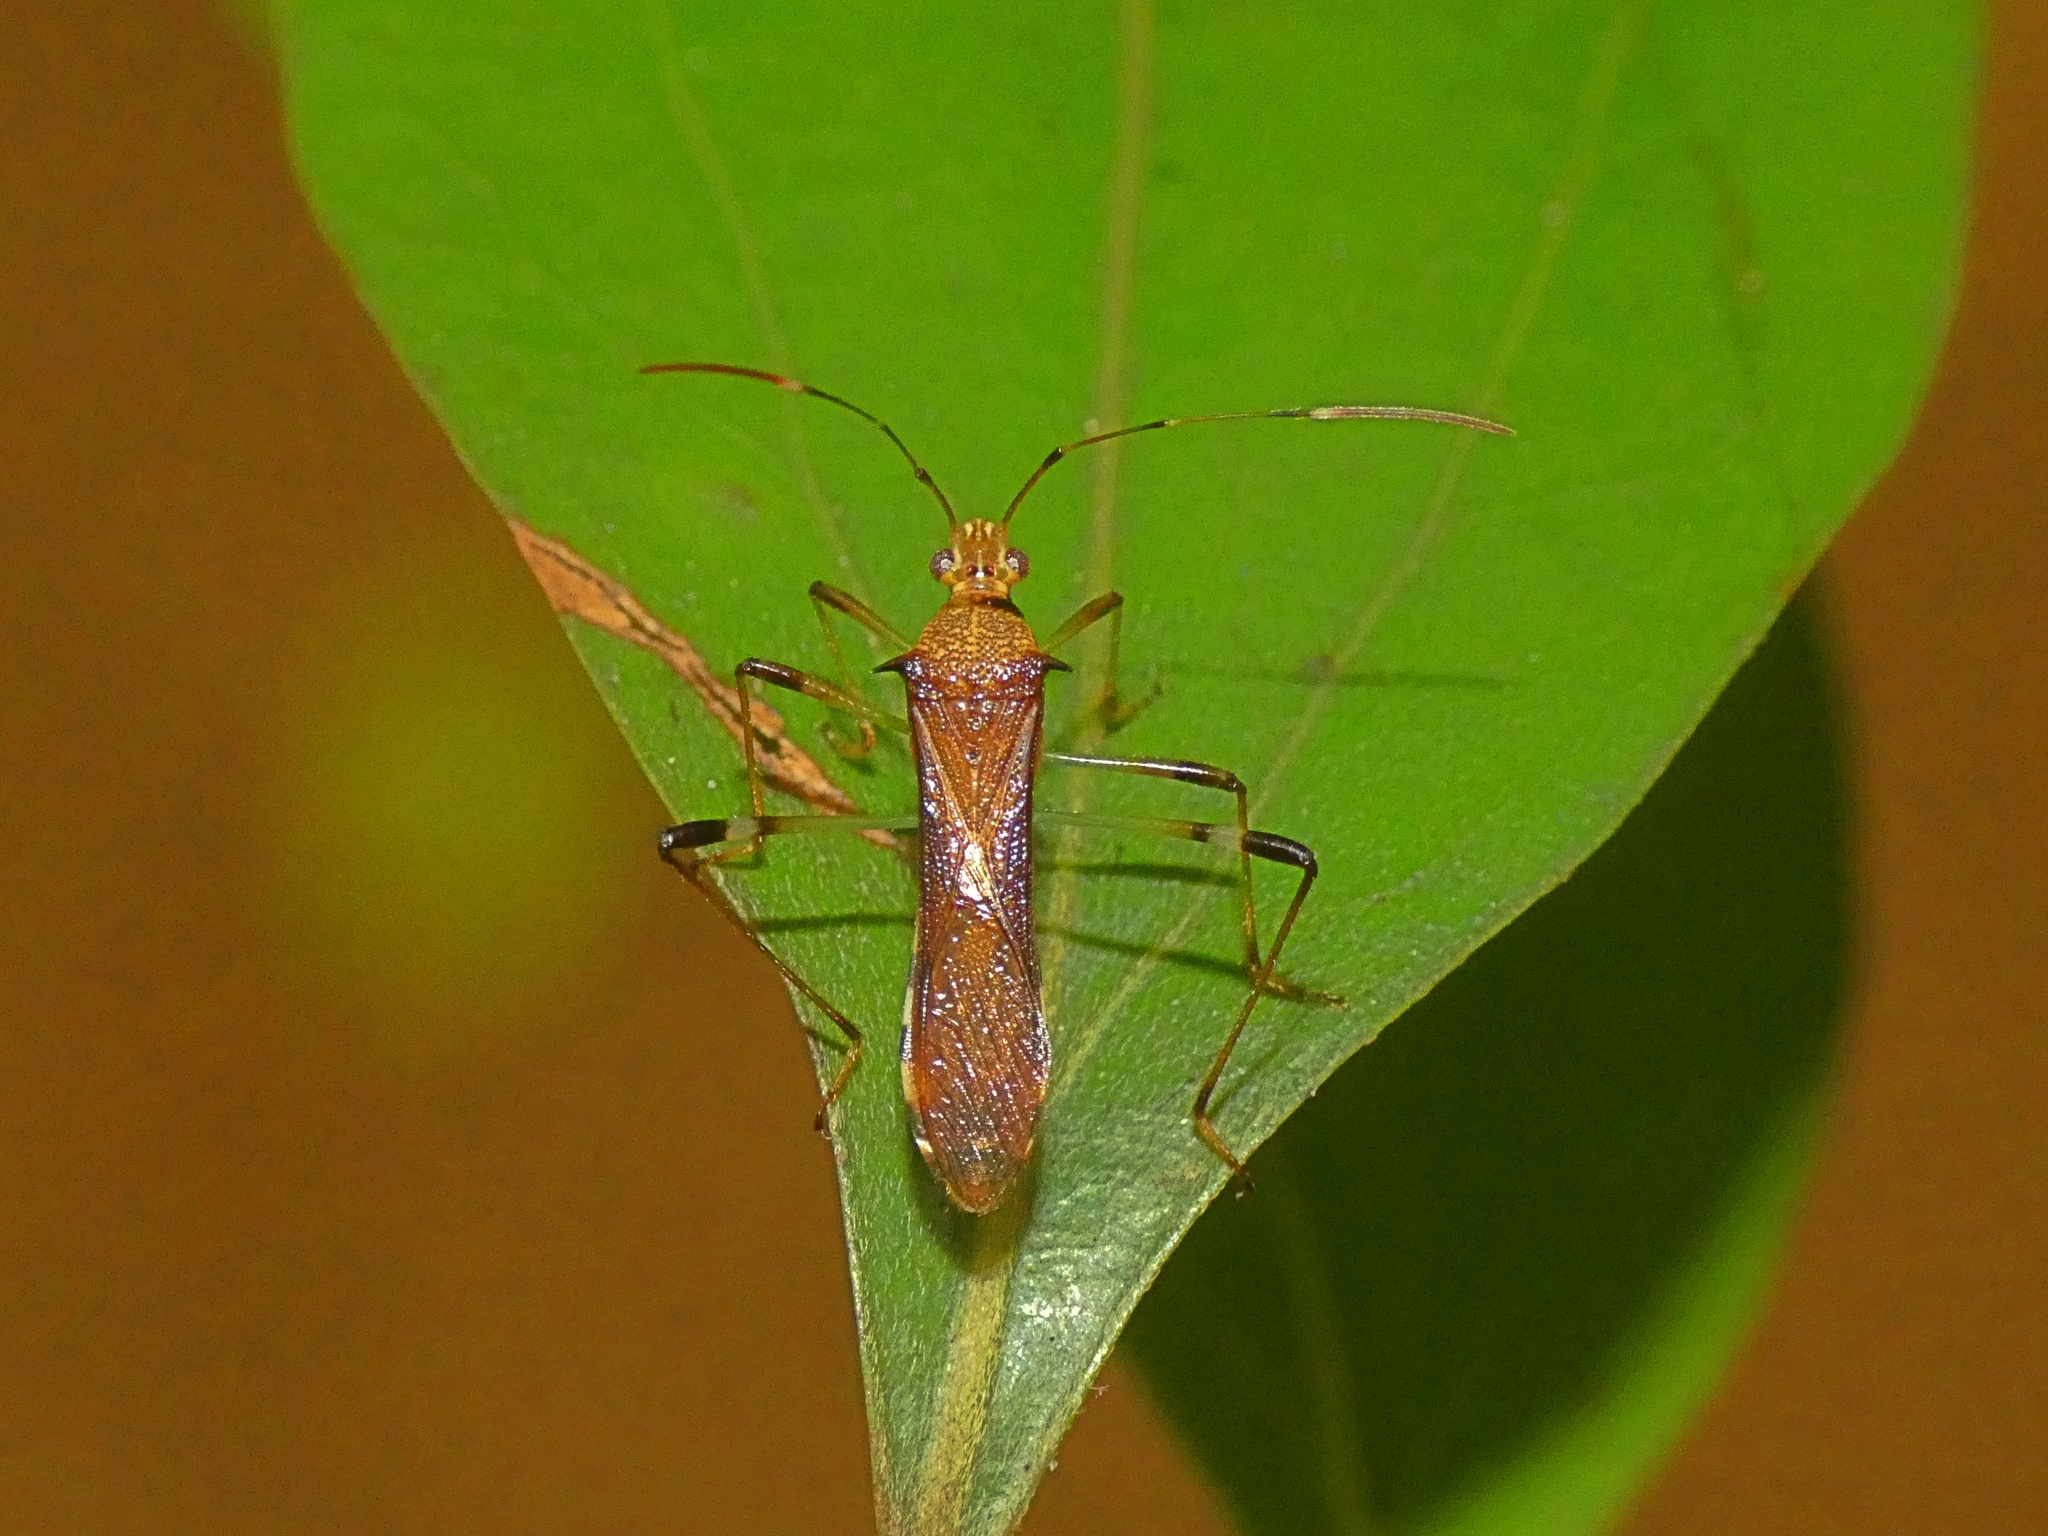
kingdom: Animalia
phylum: Arthropoda
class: Insecta
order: Hemiptera
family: Alydidae
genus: Noliphus
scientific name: Noliphus annulipes
